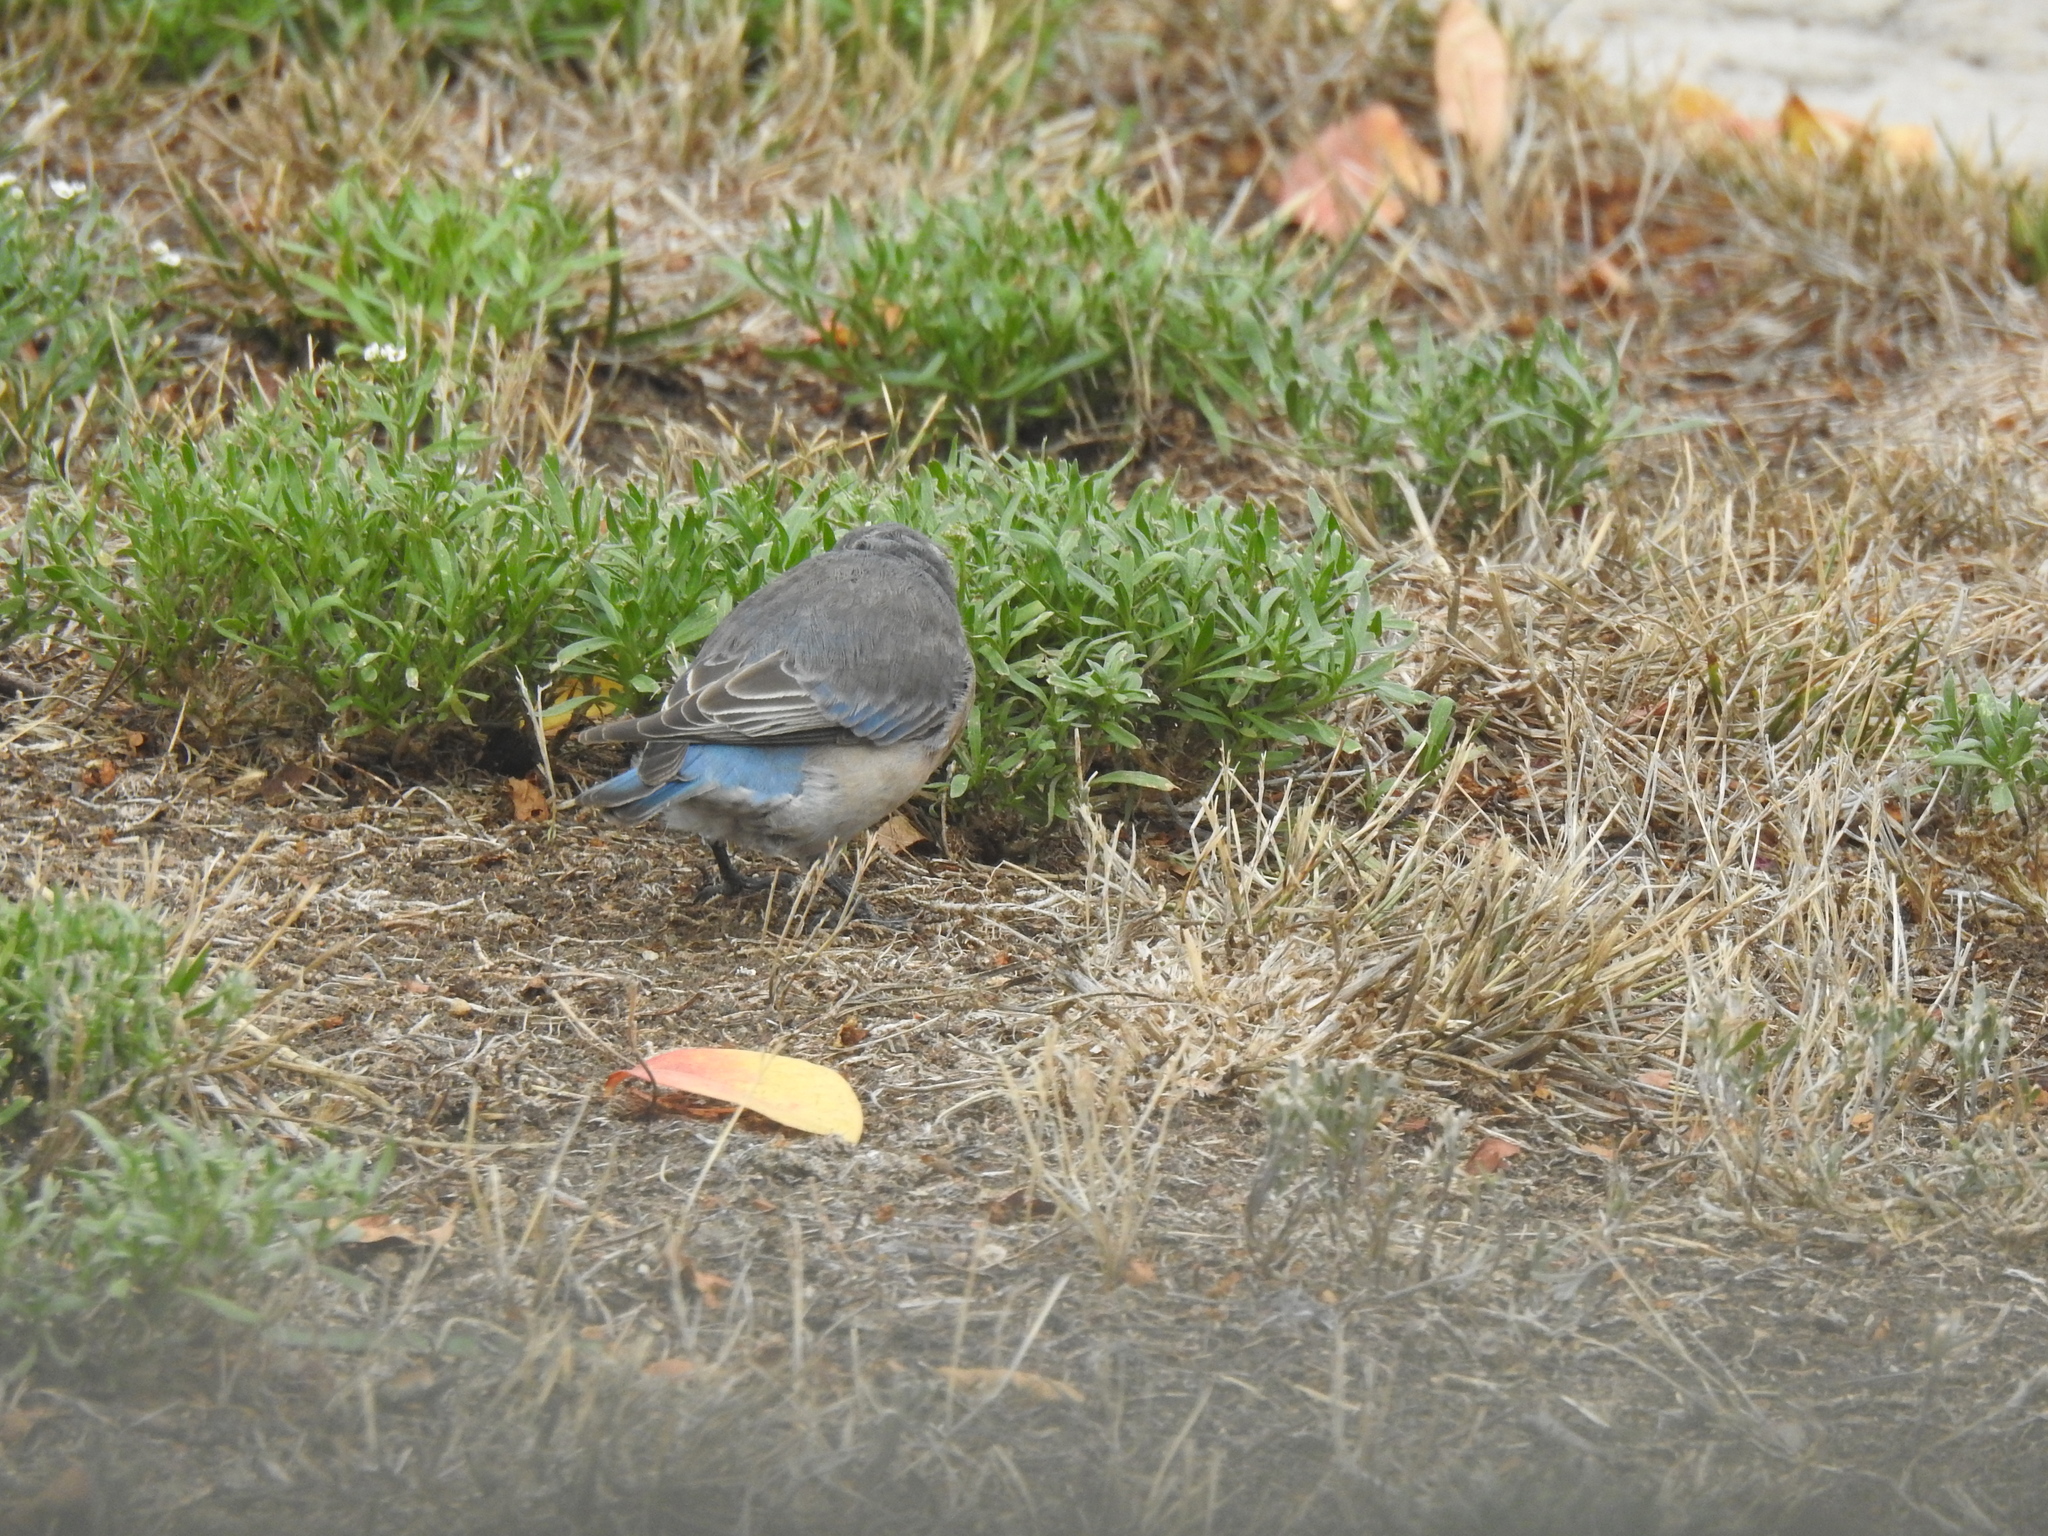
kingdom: Animalia
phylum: Chordata
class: Aves
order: Passeriformes
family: Turdidae
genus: Sialia
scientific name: Sialia mexicana
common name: Western bluebird
